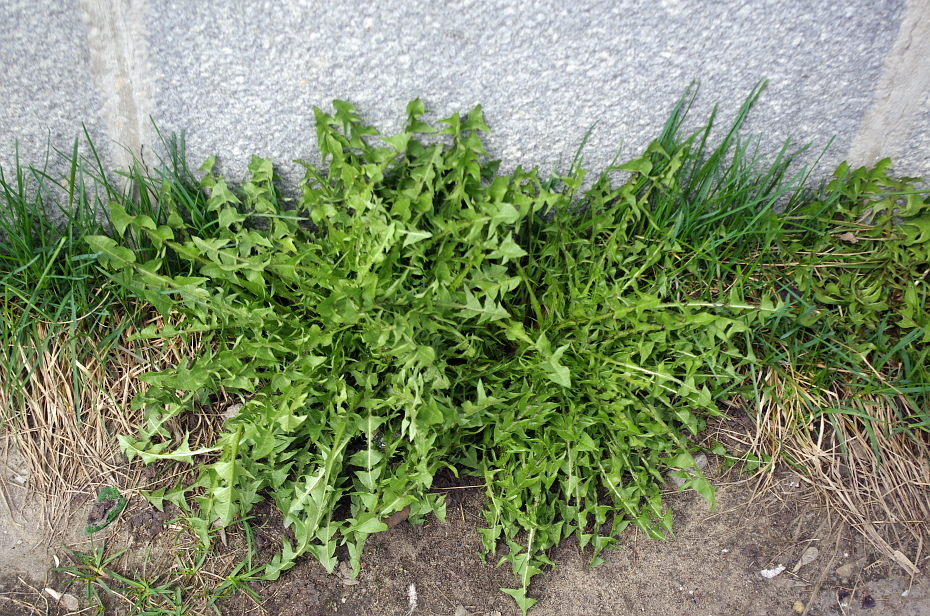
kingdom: Plantae
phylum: Tracheophyta
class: Magnoliopsida
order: Asterales
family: Asteraceae
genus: Taraxacum
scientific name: Taraxacum officinale
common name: Common dandelion
